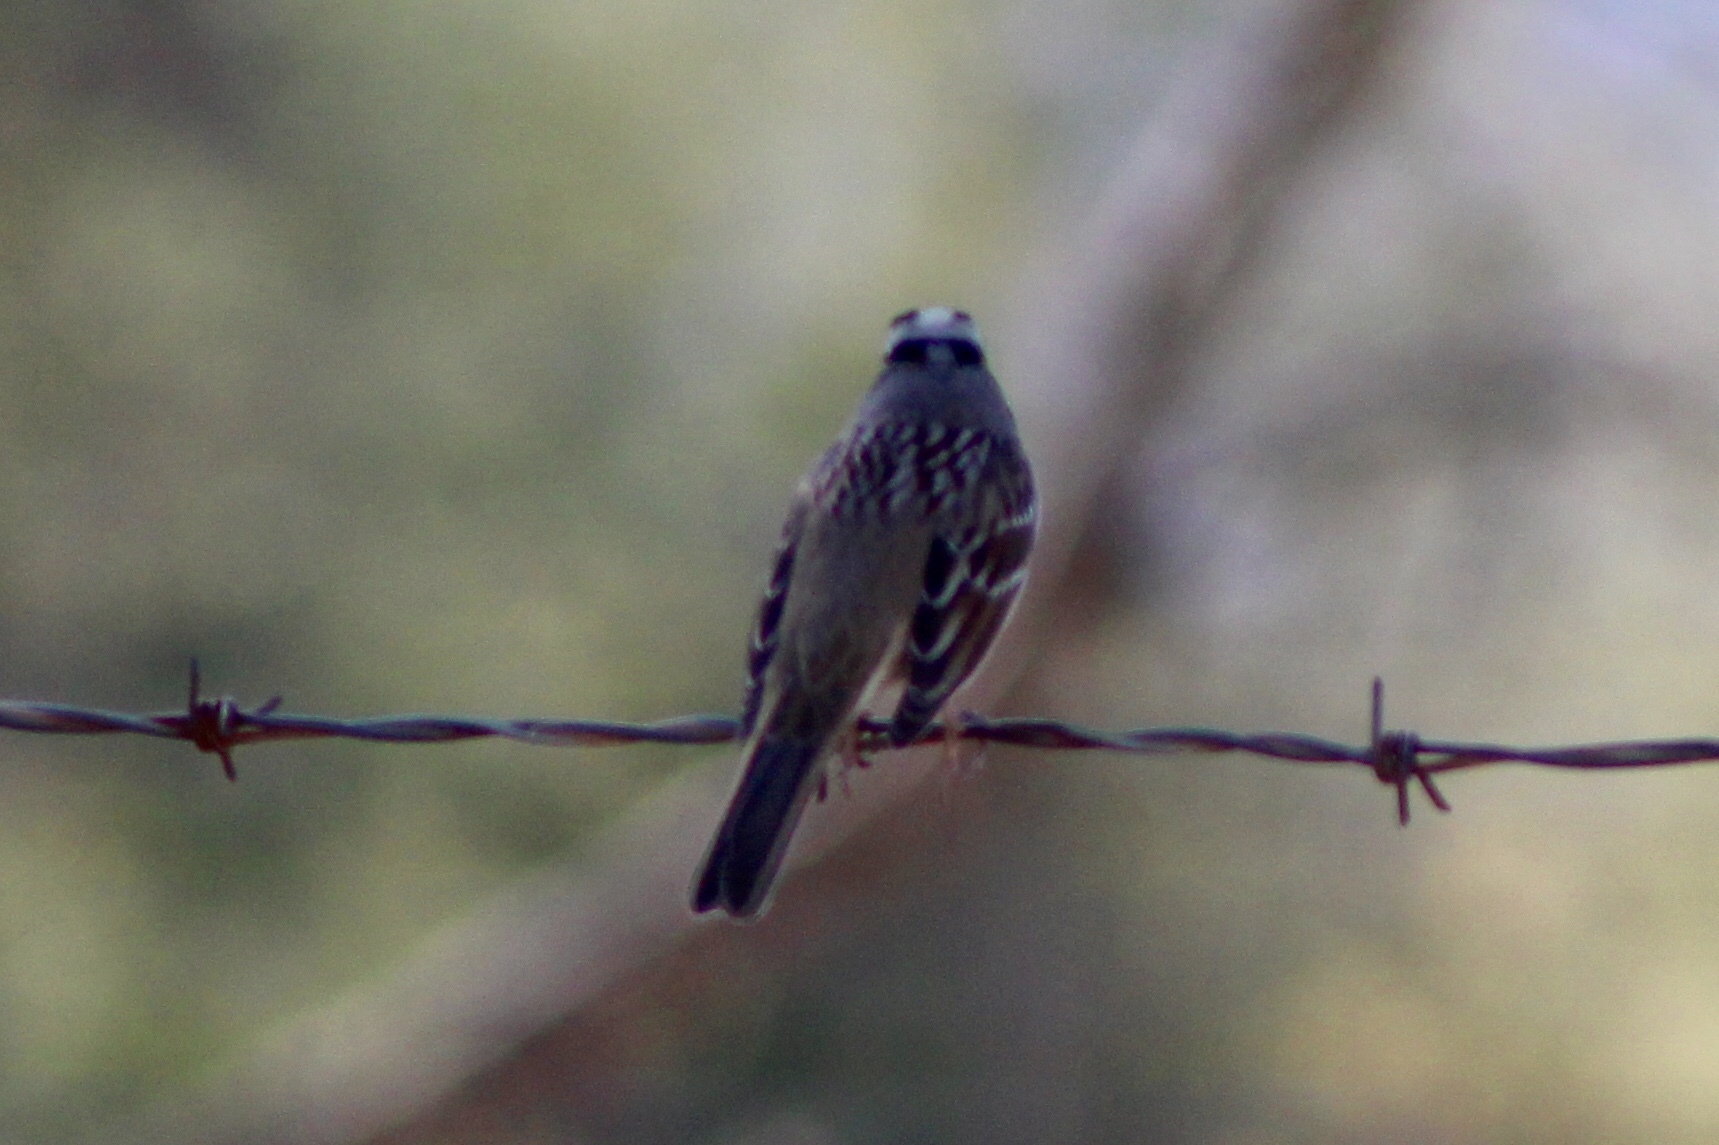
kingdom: Animalia
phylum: Chordata
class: Aves
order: Passeriformes
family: Passerellidae
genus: Zonotrichia
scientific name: Zonotrichia leucophrys
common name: White-crowned sparrow
